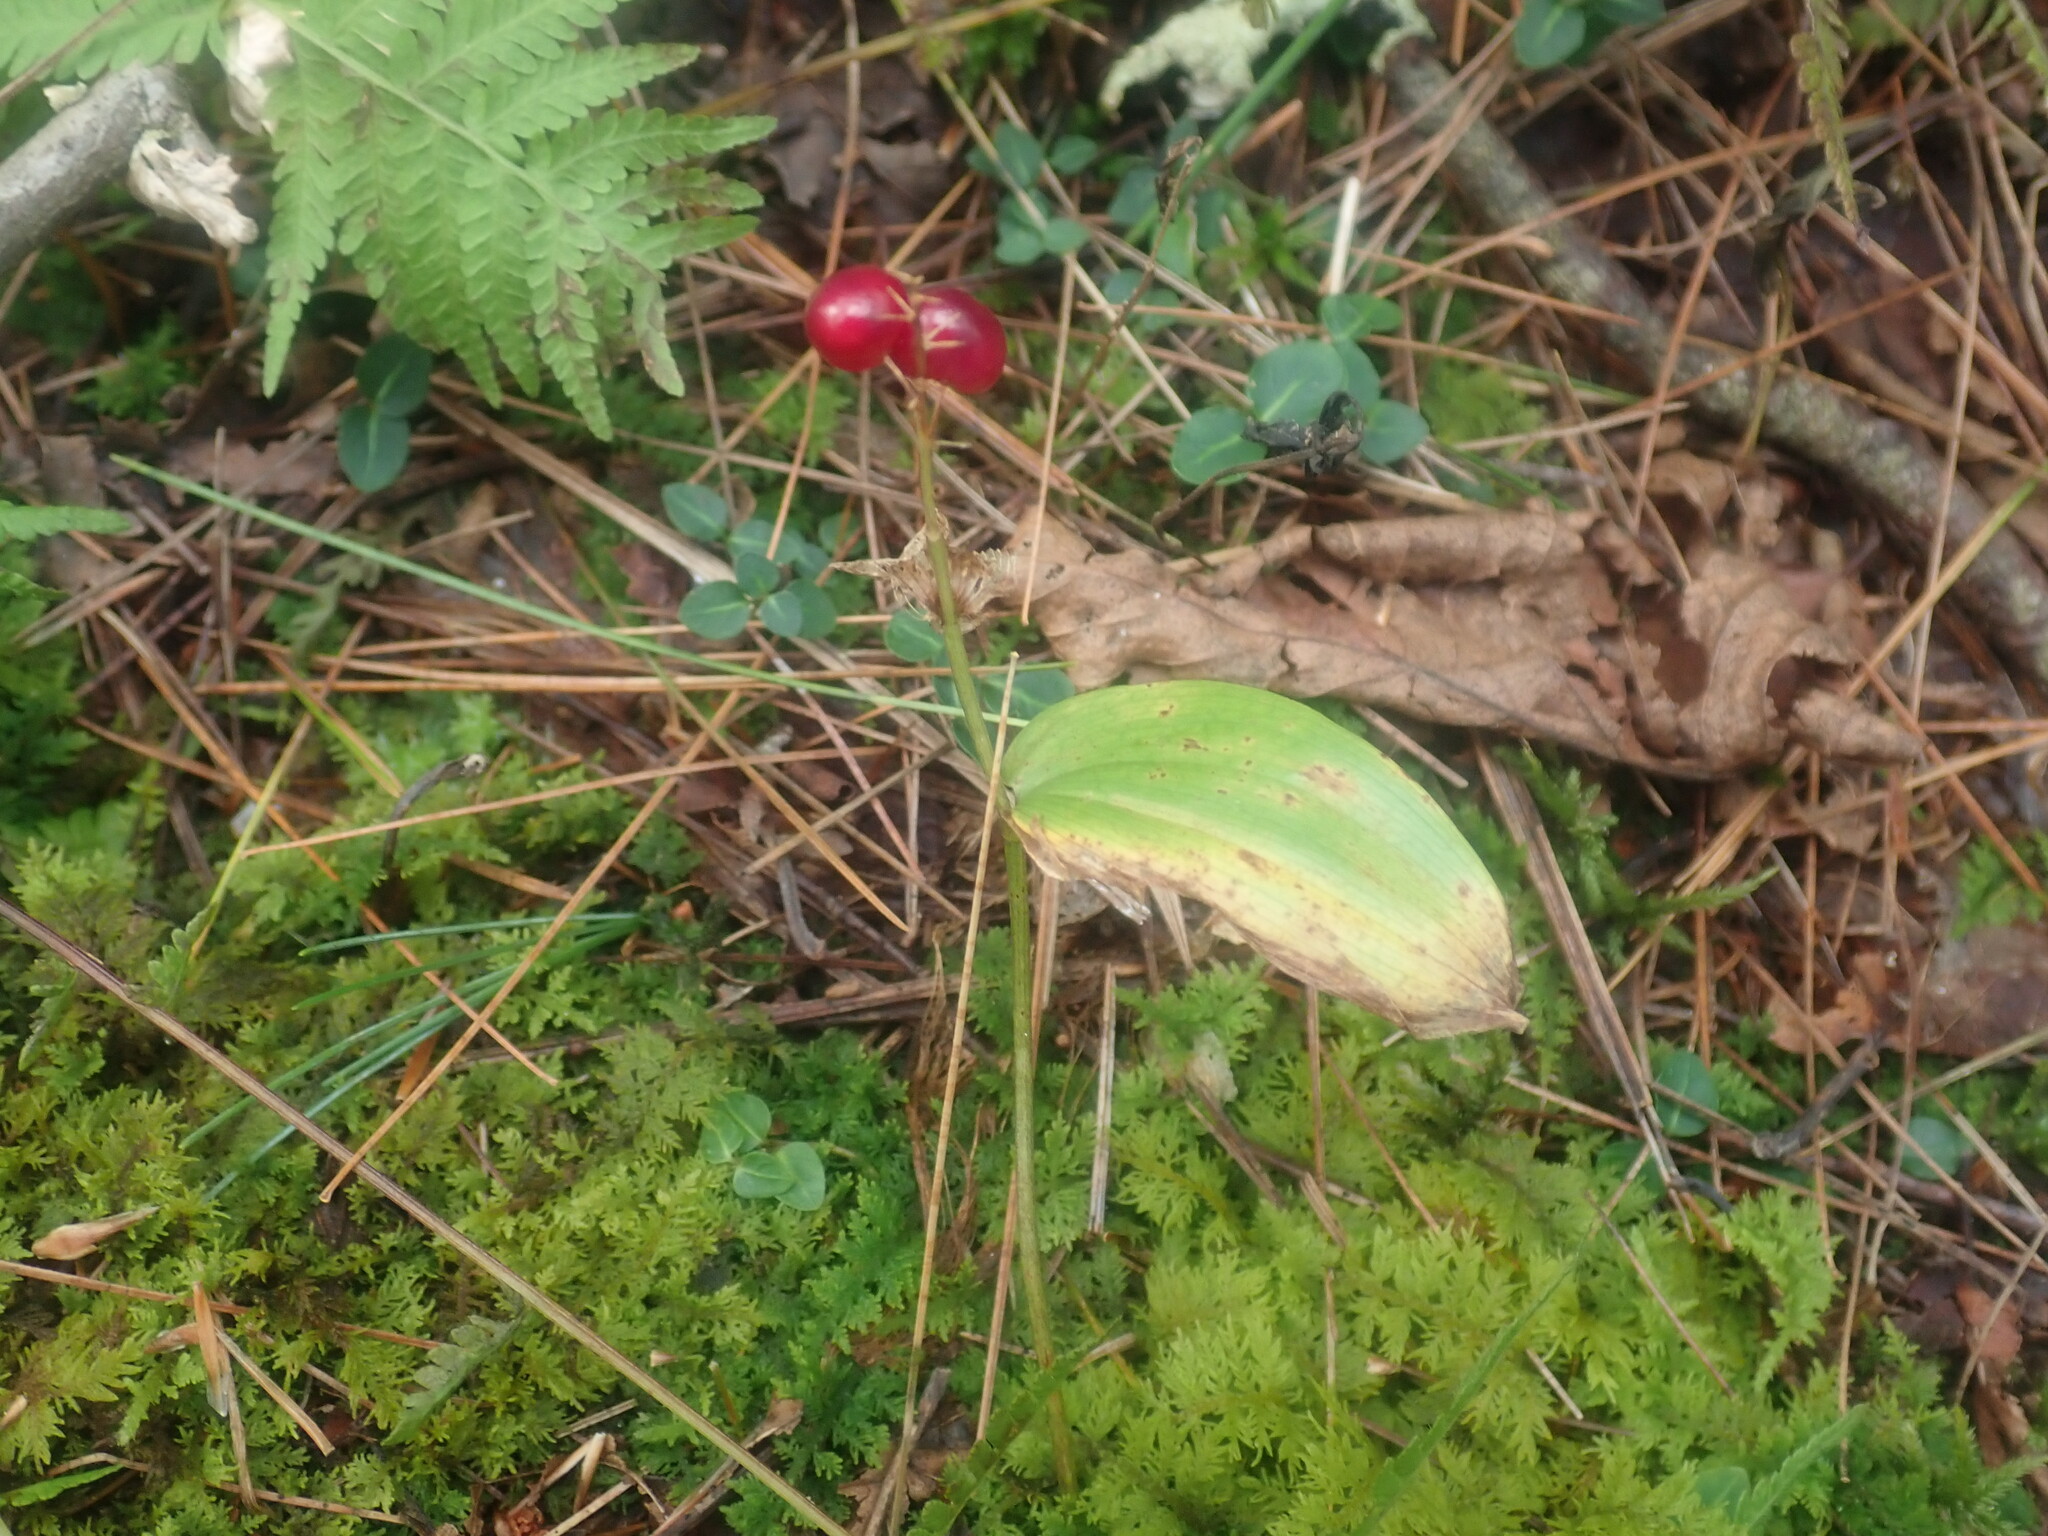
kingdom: Plantae
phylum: Tracheophyta
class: Liliopsida
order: Asparagales
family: Asparagaceae
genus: Maianthemum
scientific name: Maianthemum canadense
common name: False lily-of-the-valley
